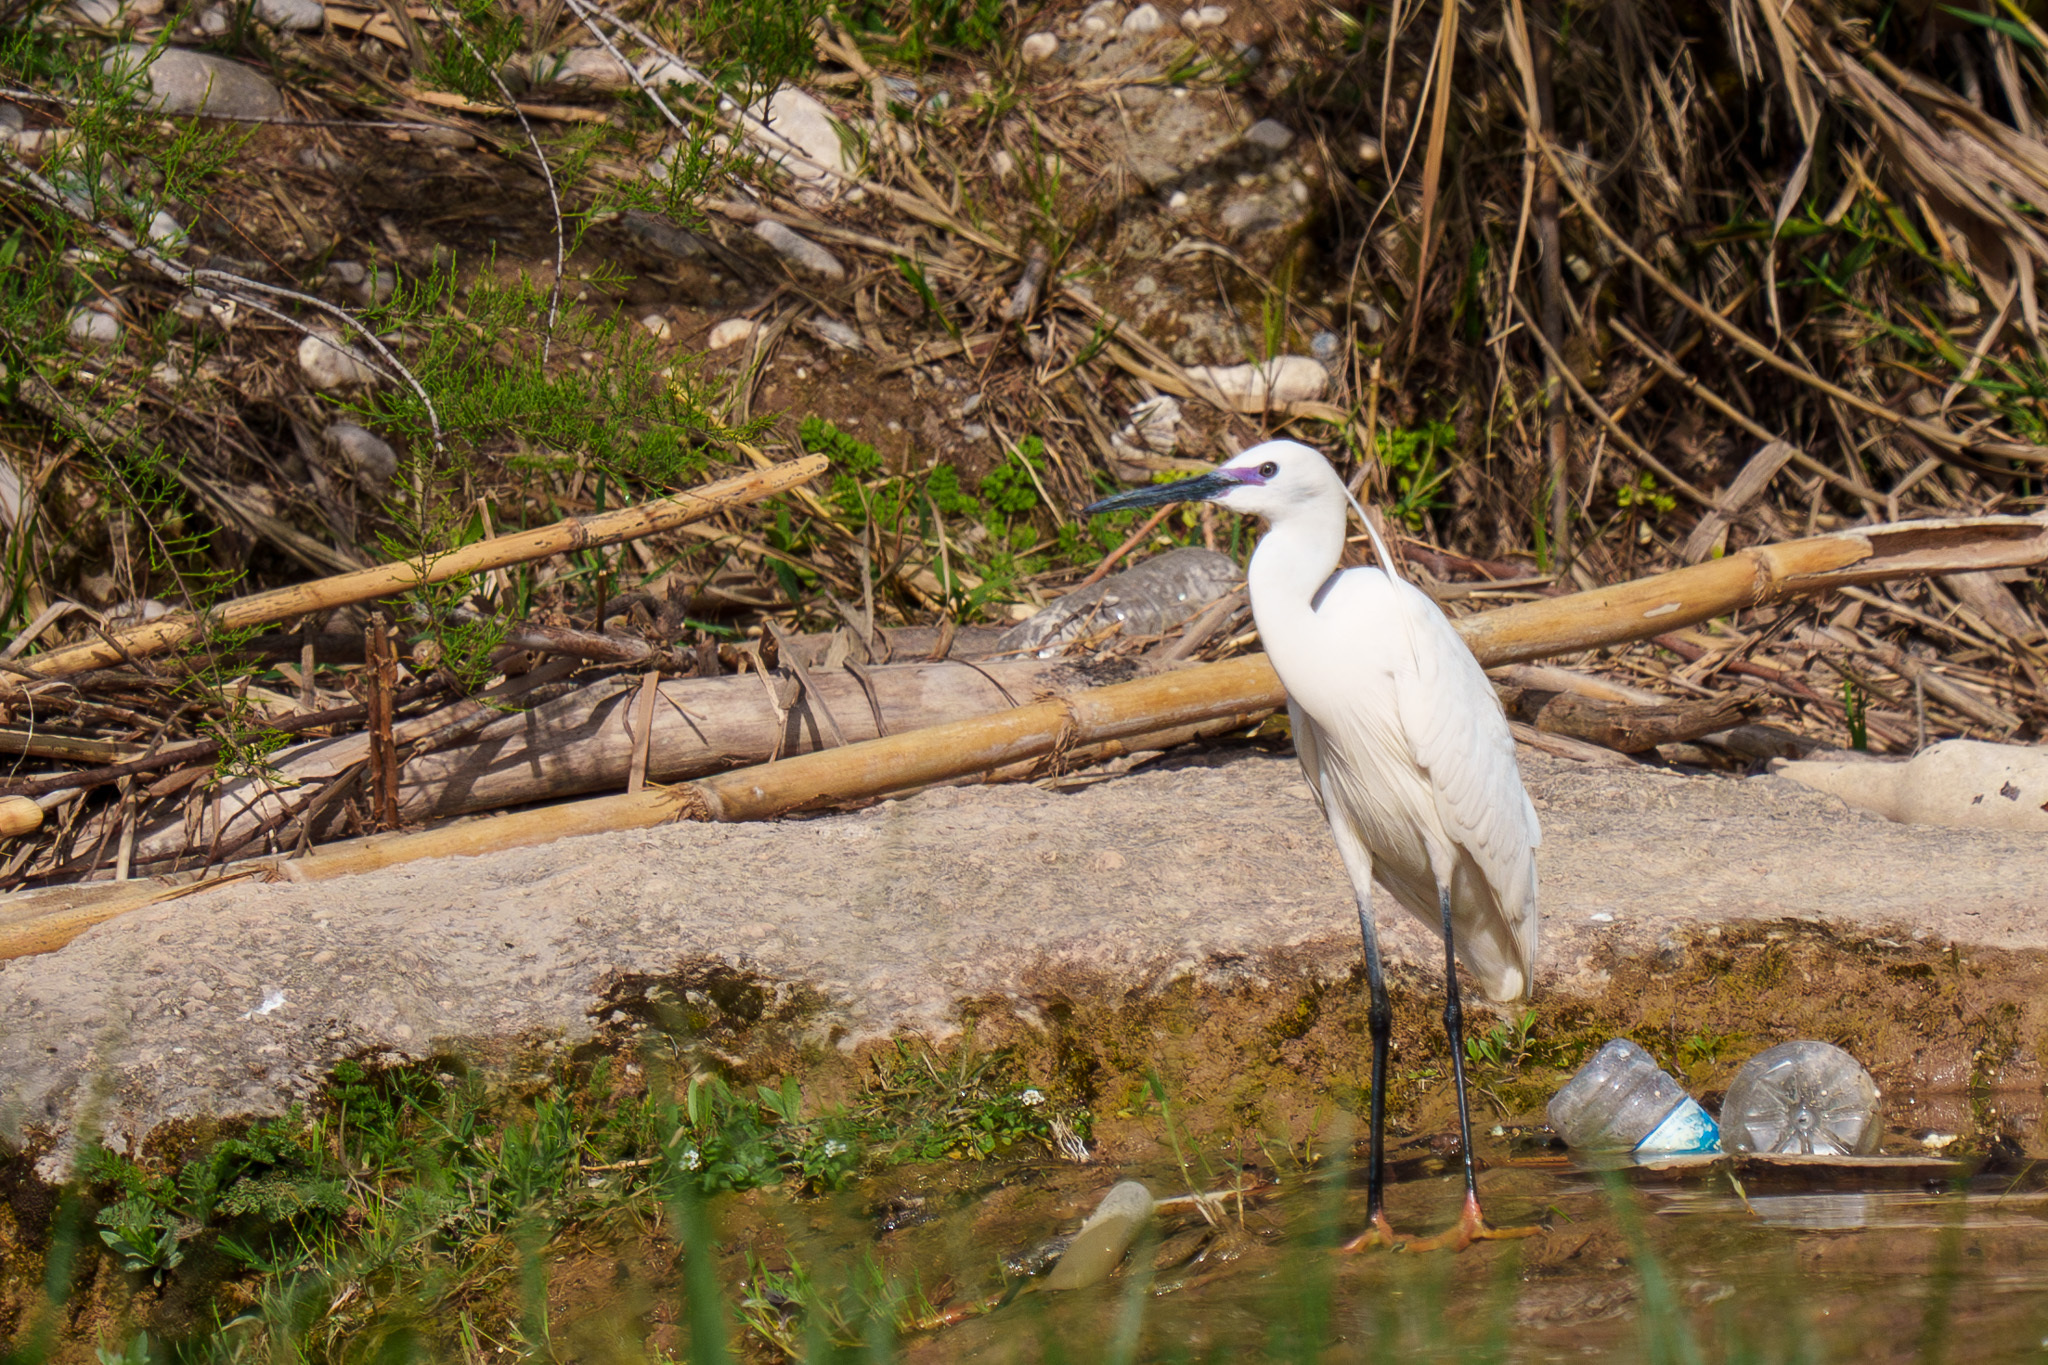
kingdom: Animalia
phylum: Chordata
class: Aves
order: Pelecaniformes
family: Ardeidae
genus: Egretta
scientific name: Egretta garzetta
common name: Little egret
